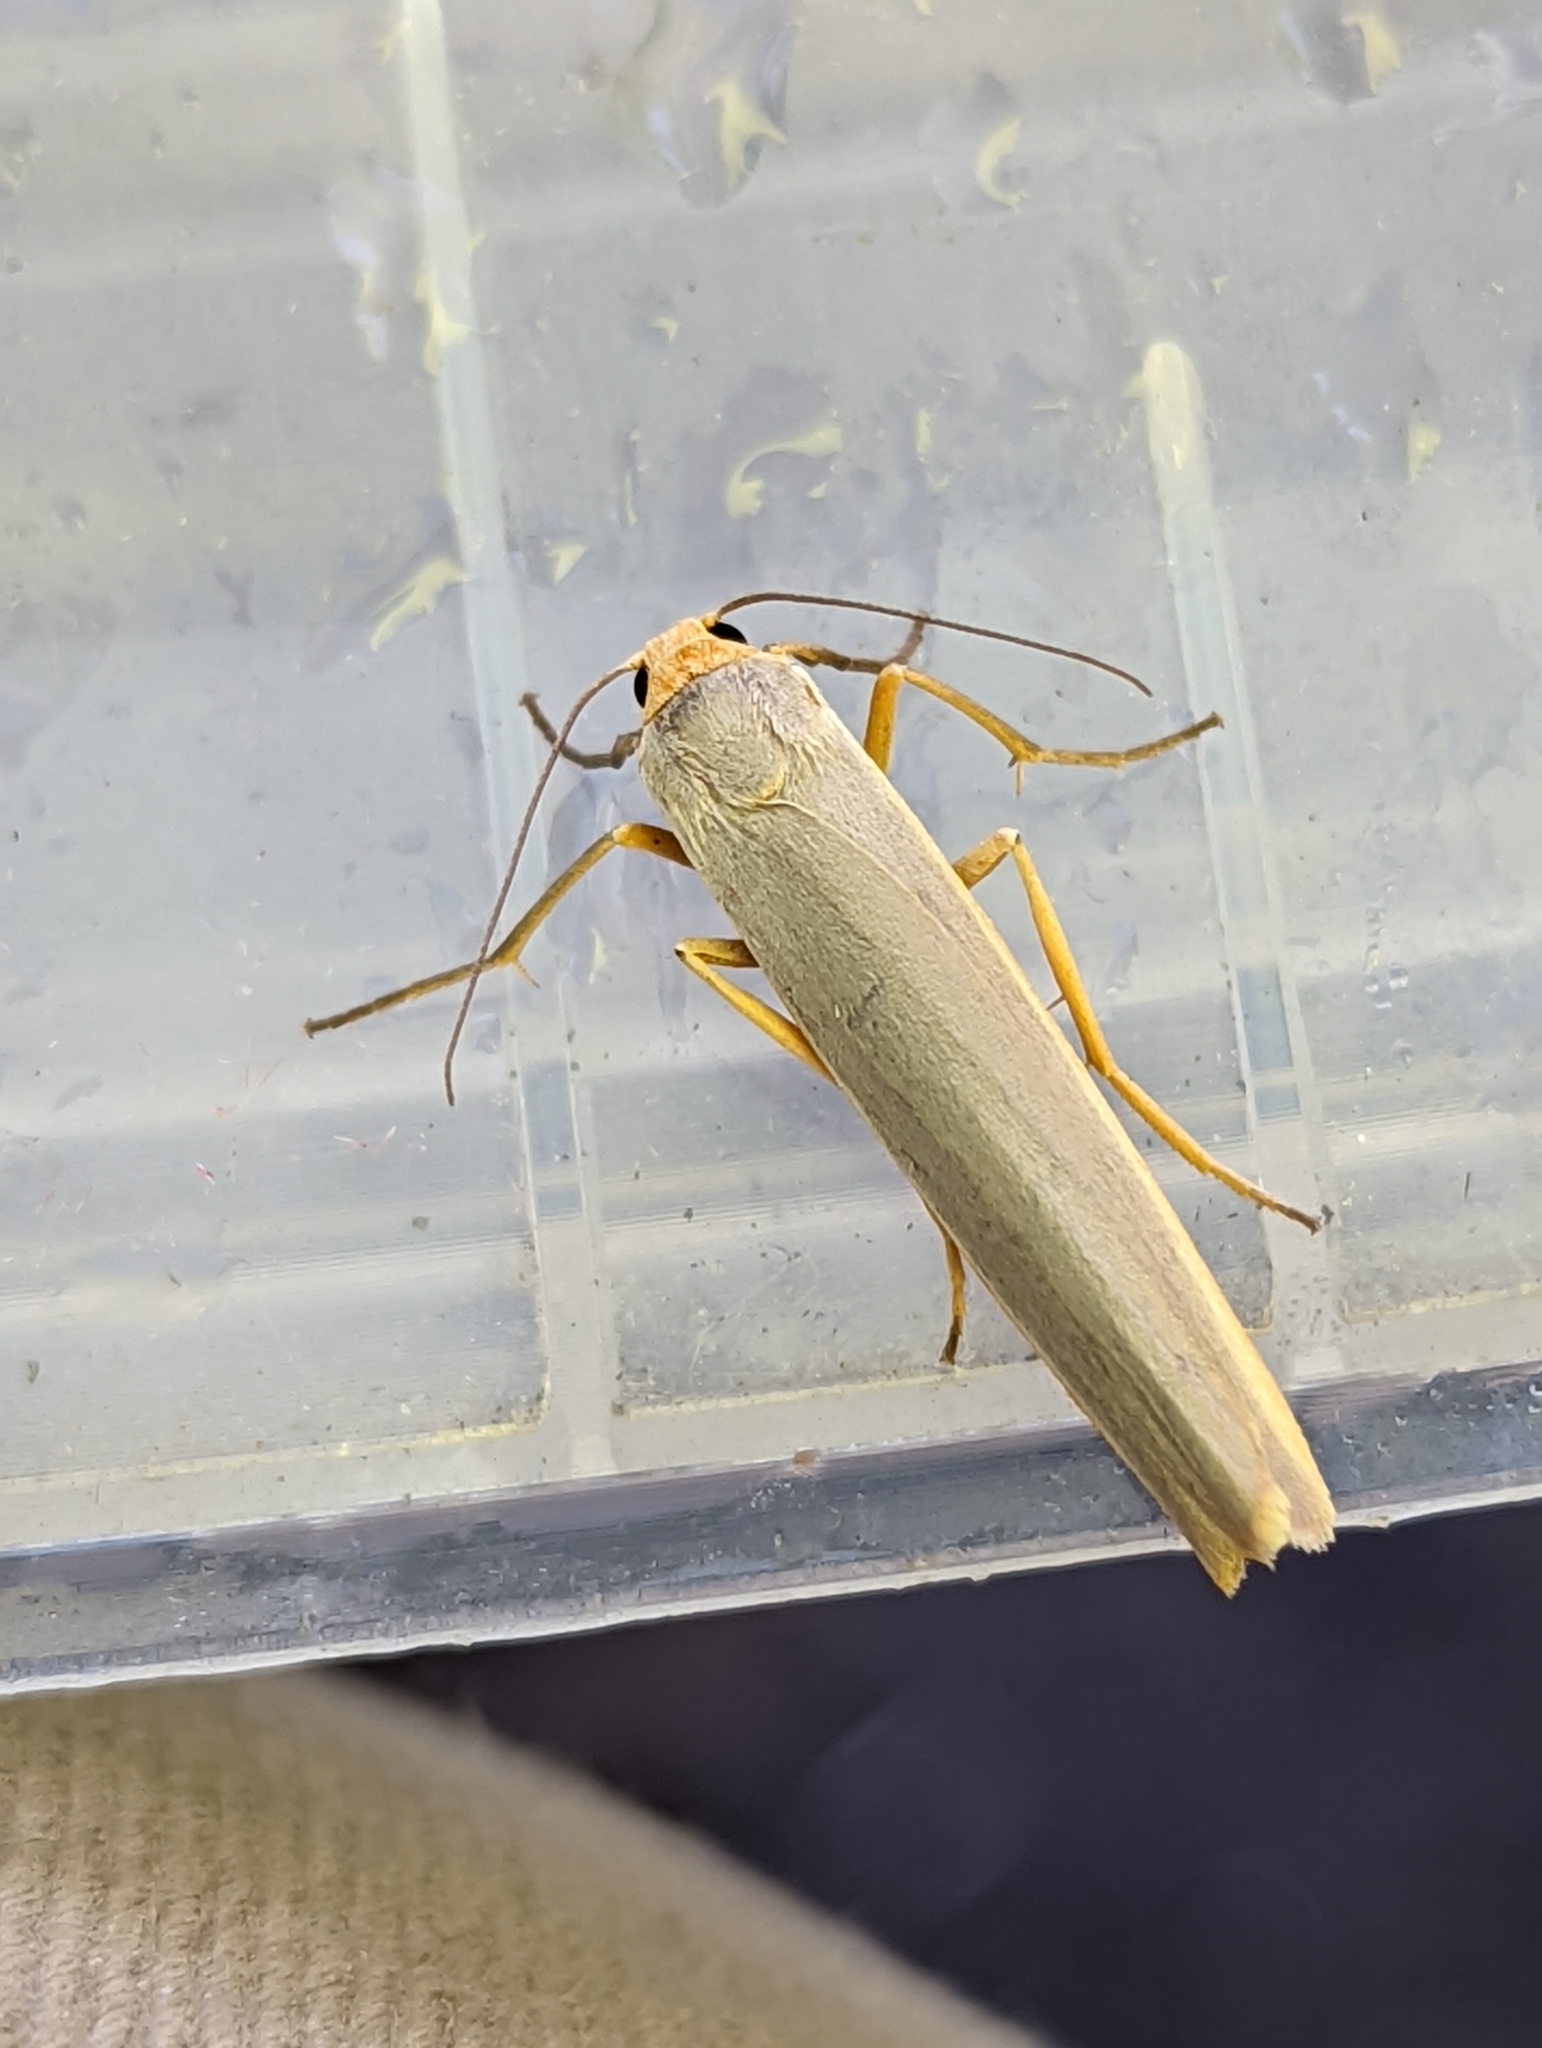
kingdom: Animalia
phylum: Arthropoda
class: Insecta
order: Lepidoptera
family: Erebidae
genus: Manulea
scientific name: Manulea complana
